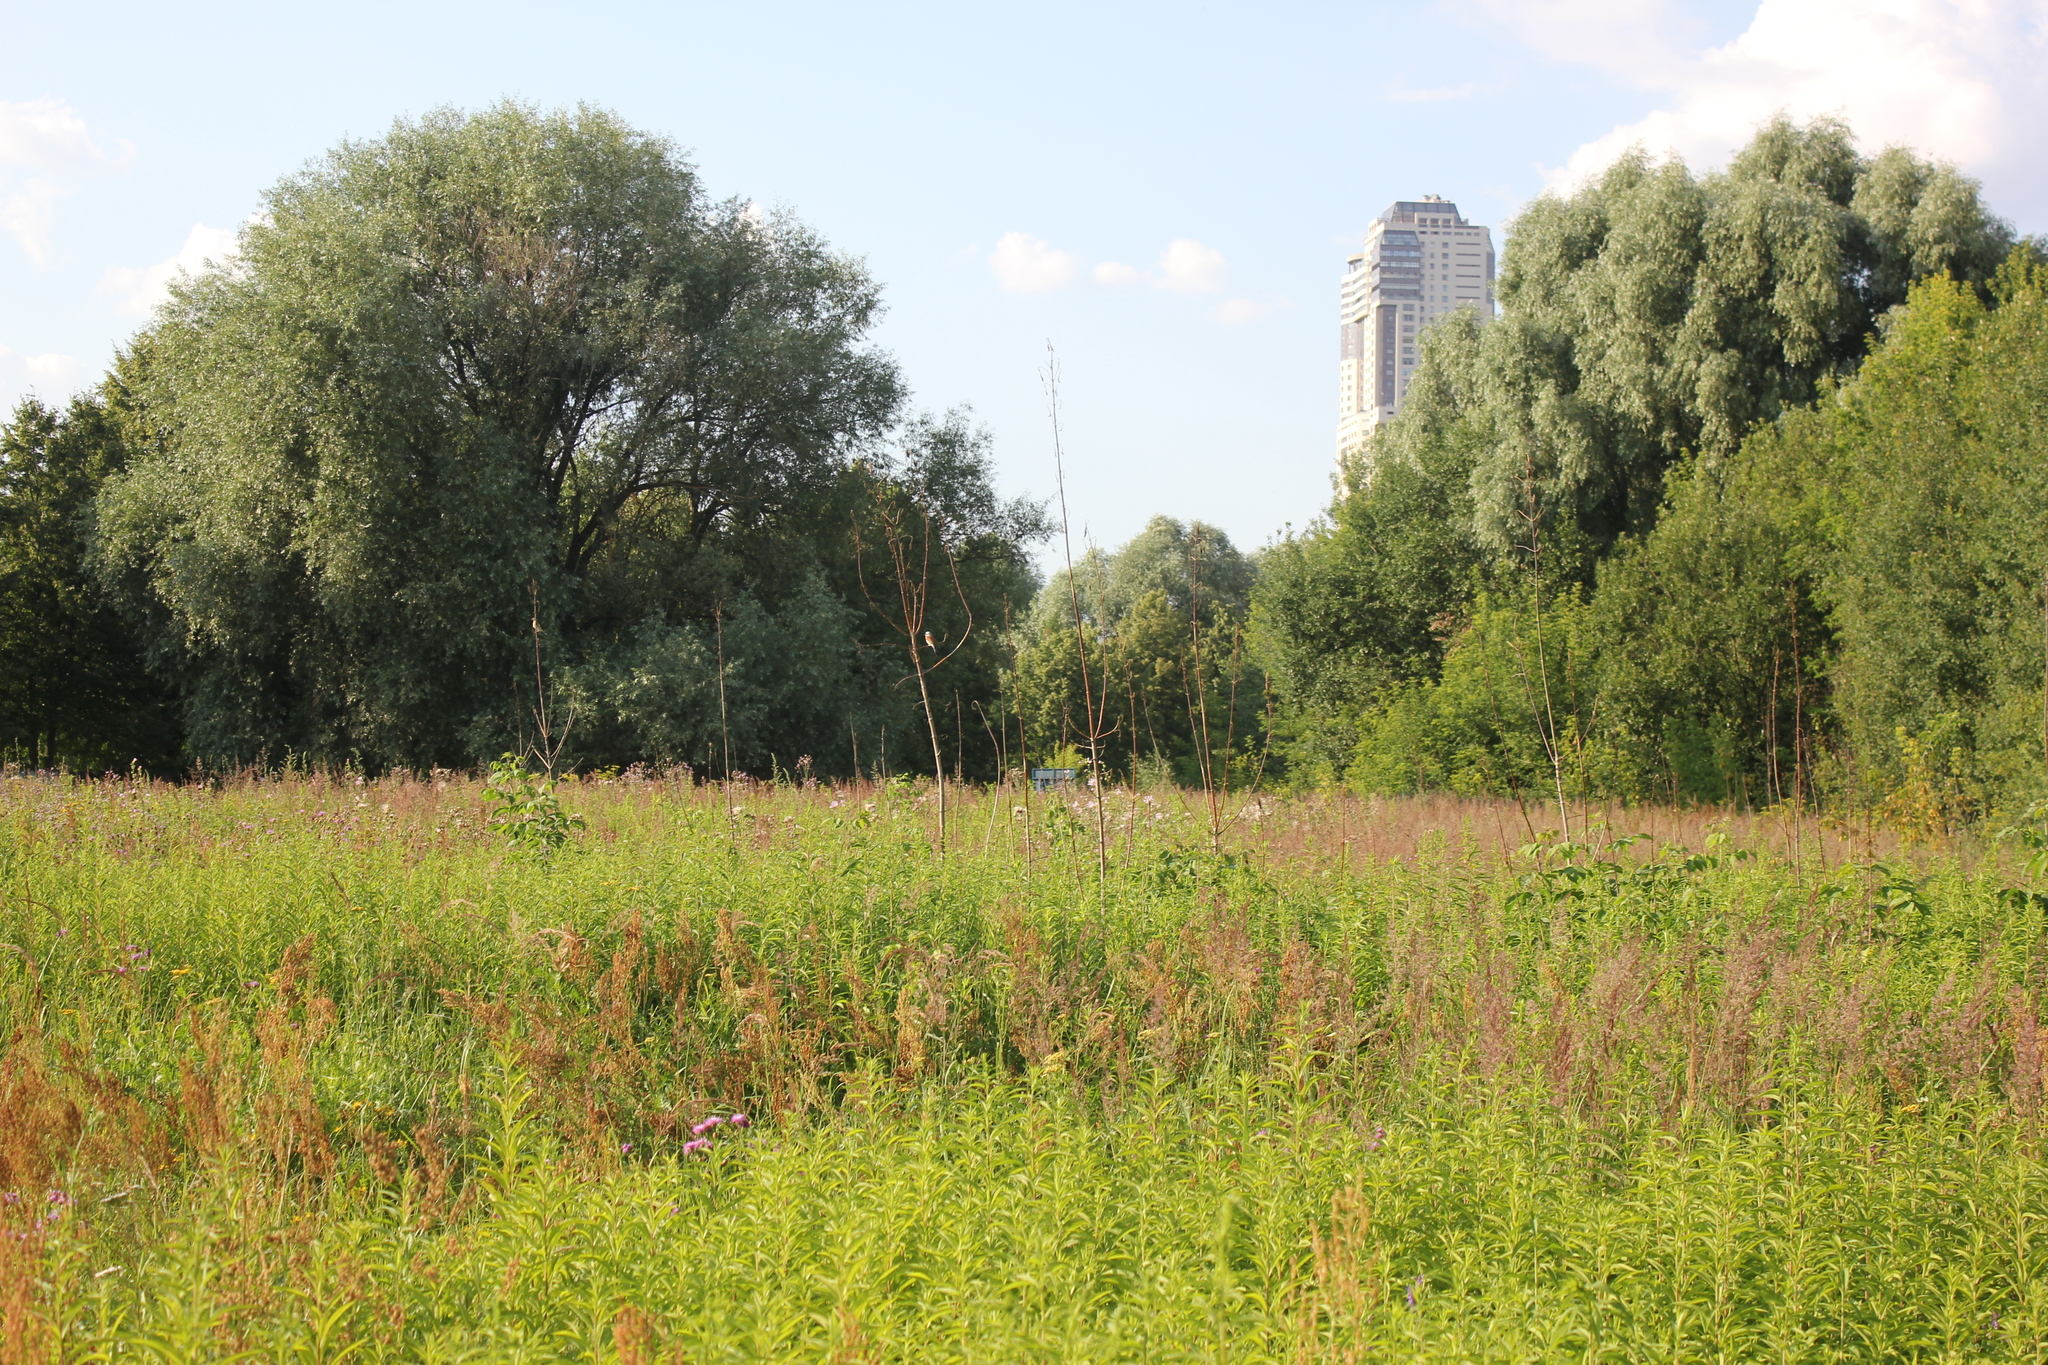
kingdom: Animalia
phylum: Chordata
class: Aves
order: Passeriformes
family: Laniidae
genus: Lanius
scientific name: Lanius collurio
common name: Red-backed shrike
